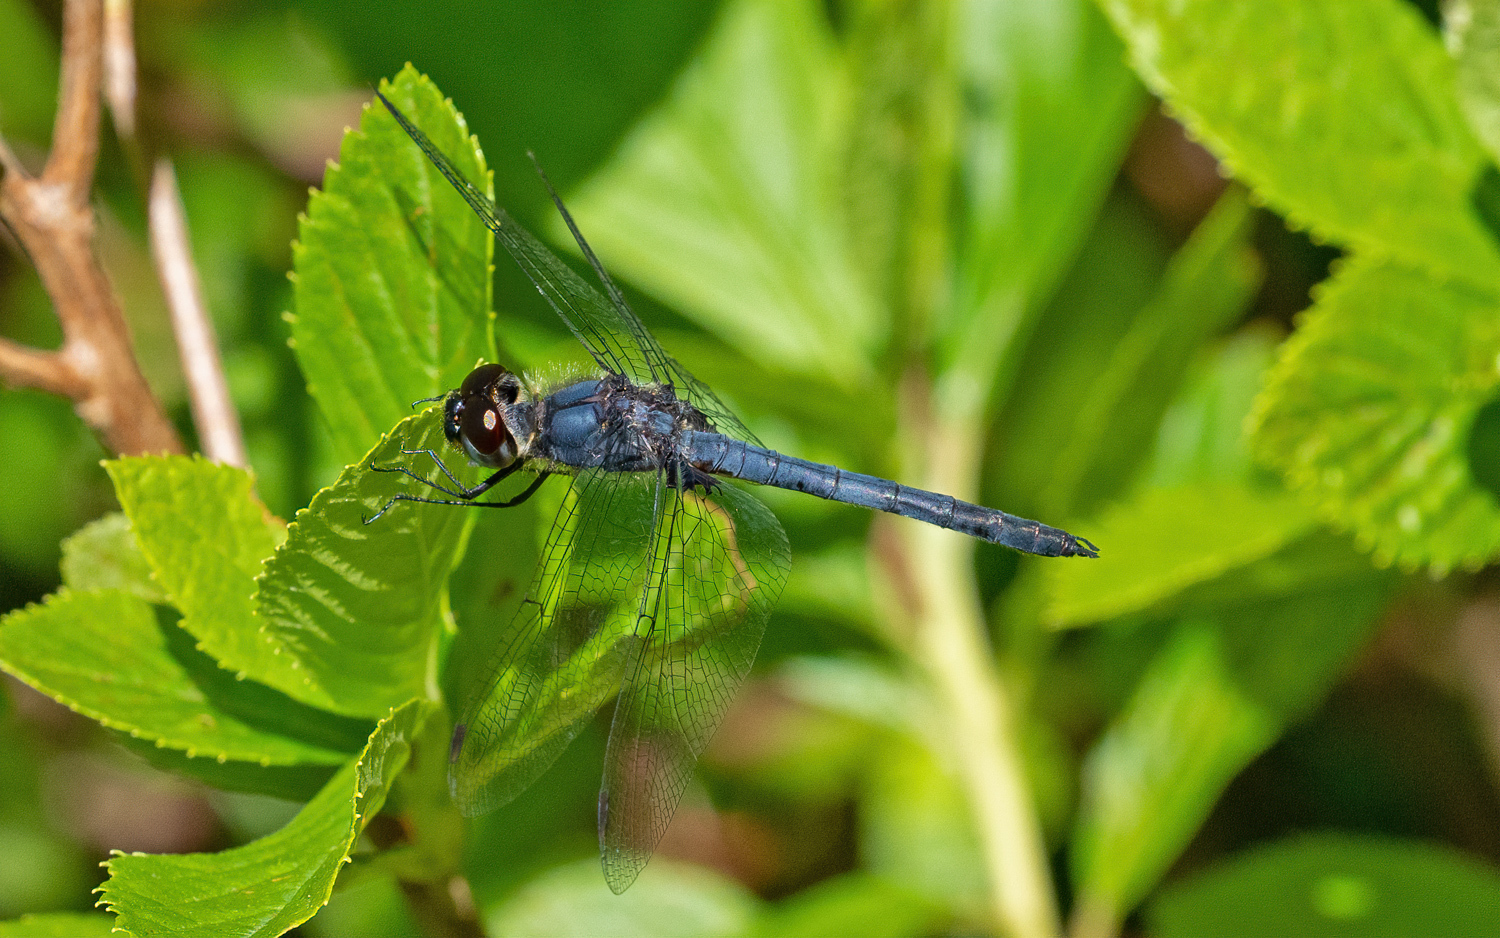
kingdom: Animalia
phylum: Arthropoda
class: Insecta
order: Odonata
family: Libellulidae
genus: Celithemis
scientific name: Celithemis verna
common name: Double-ringed pennant
